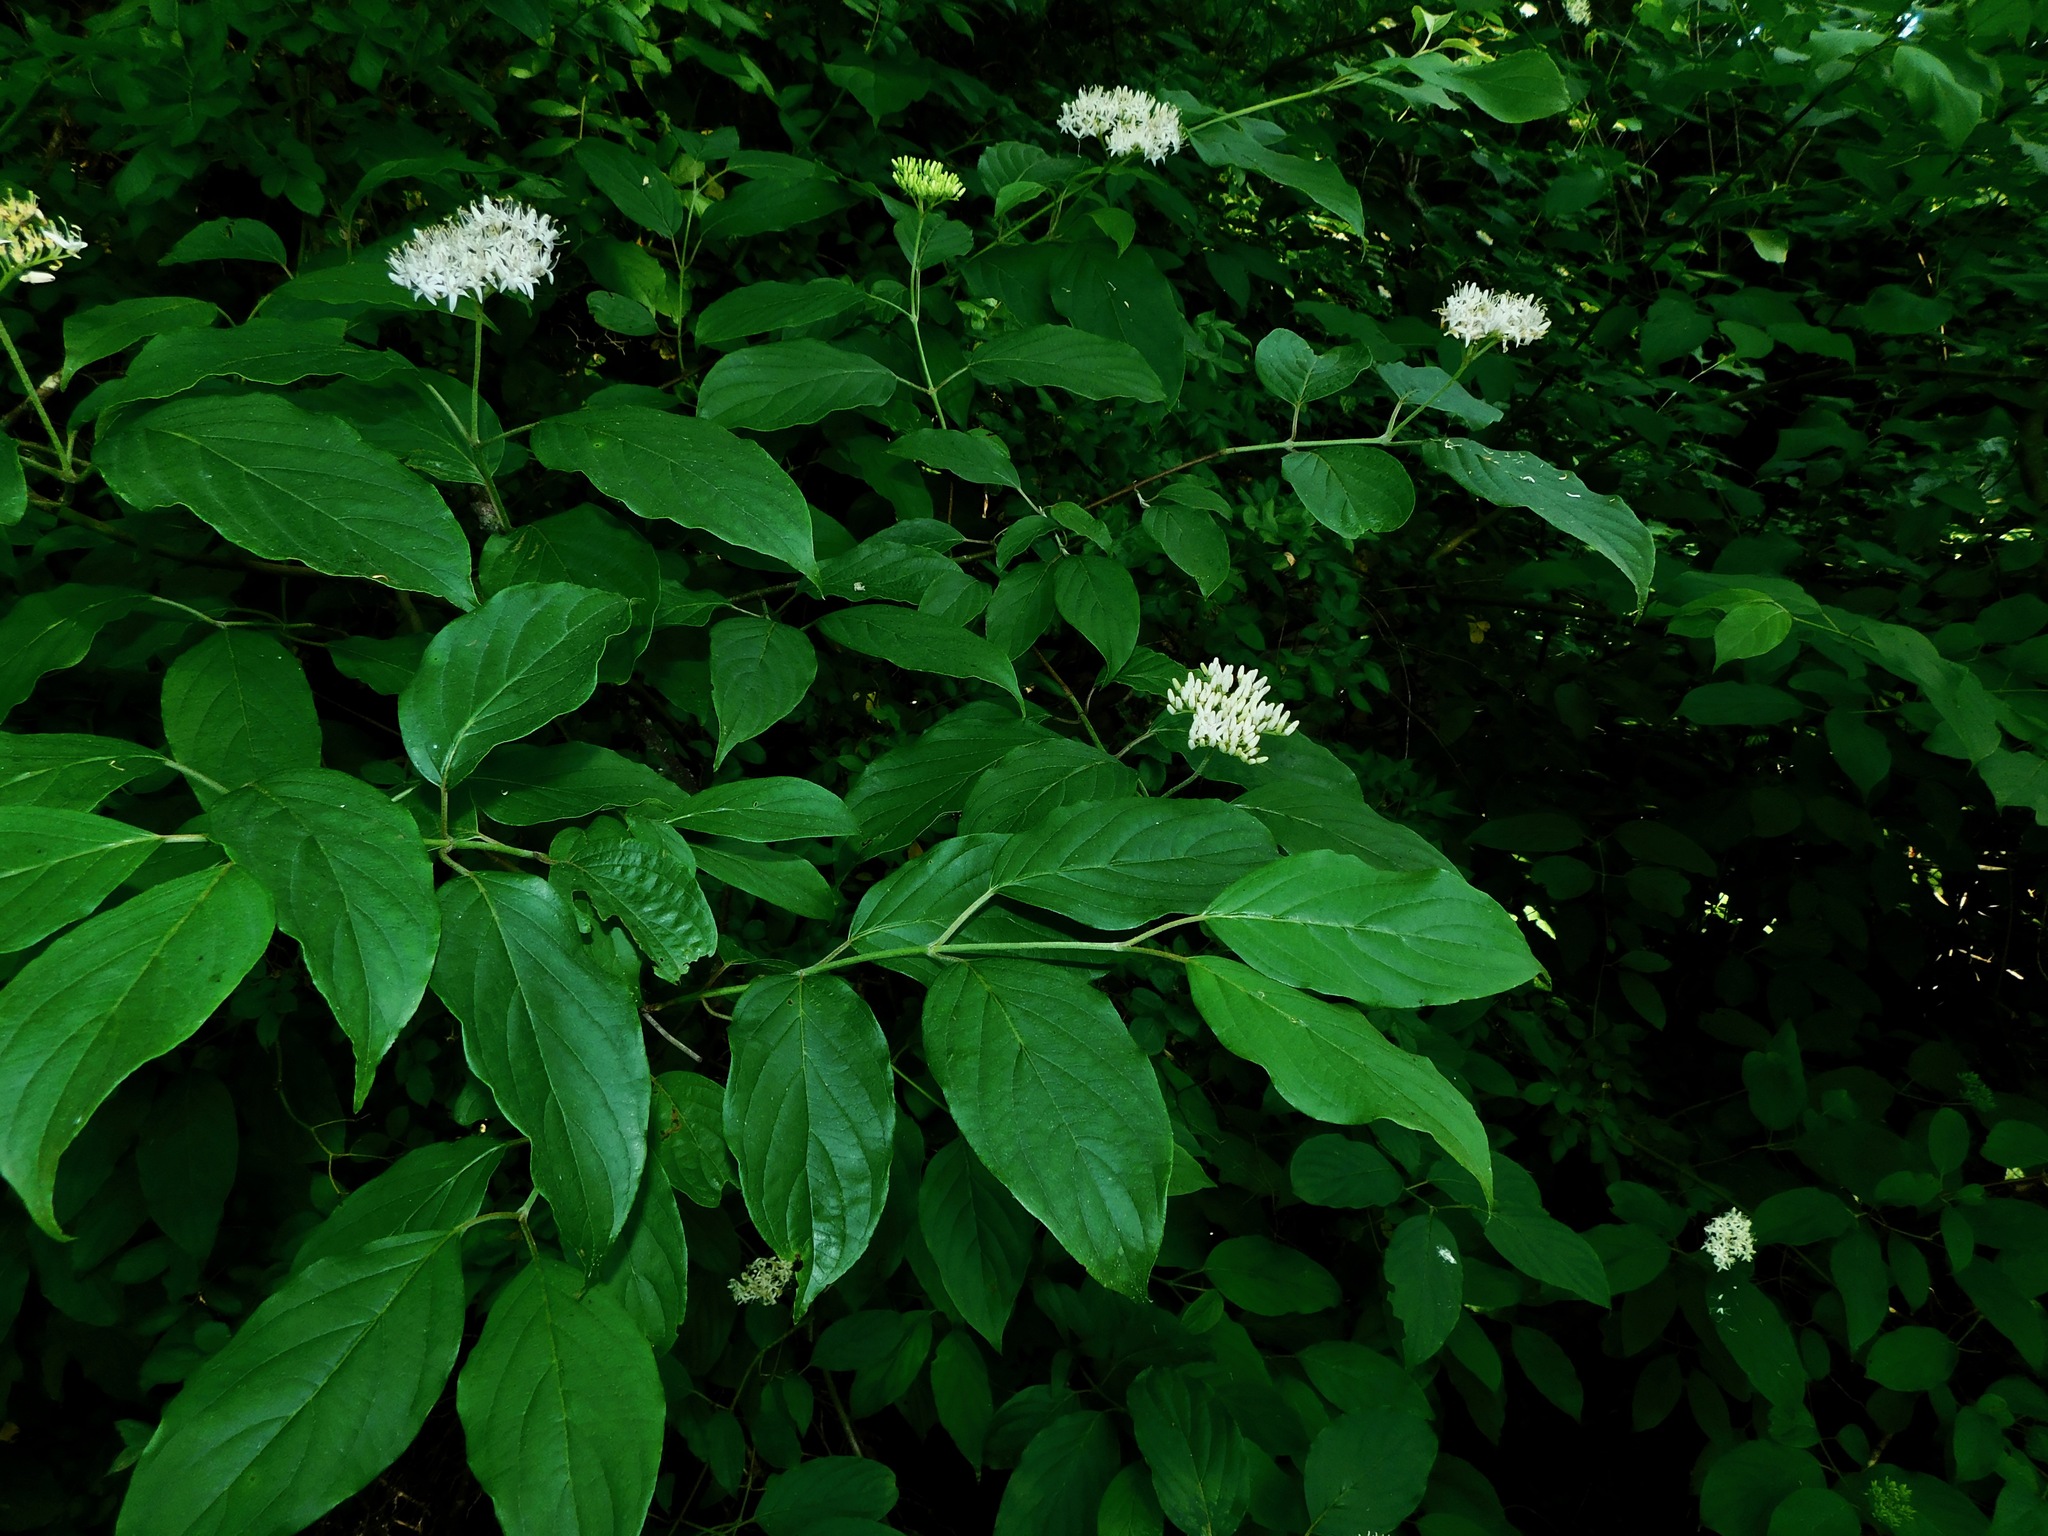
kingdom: Plantae
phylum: Tracheophyta
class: Magnoliopsida
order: Cornales
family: Cornaceae
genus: Cornus
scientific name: Cornus amomum
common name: Silky dogwood
